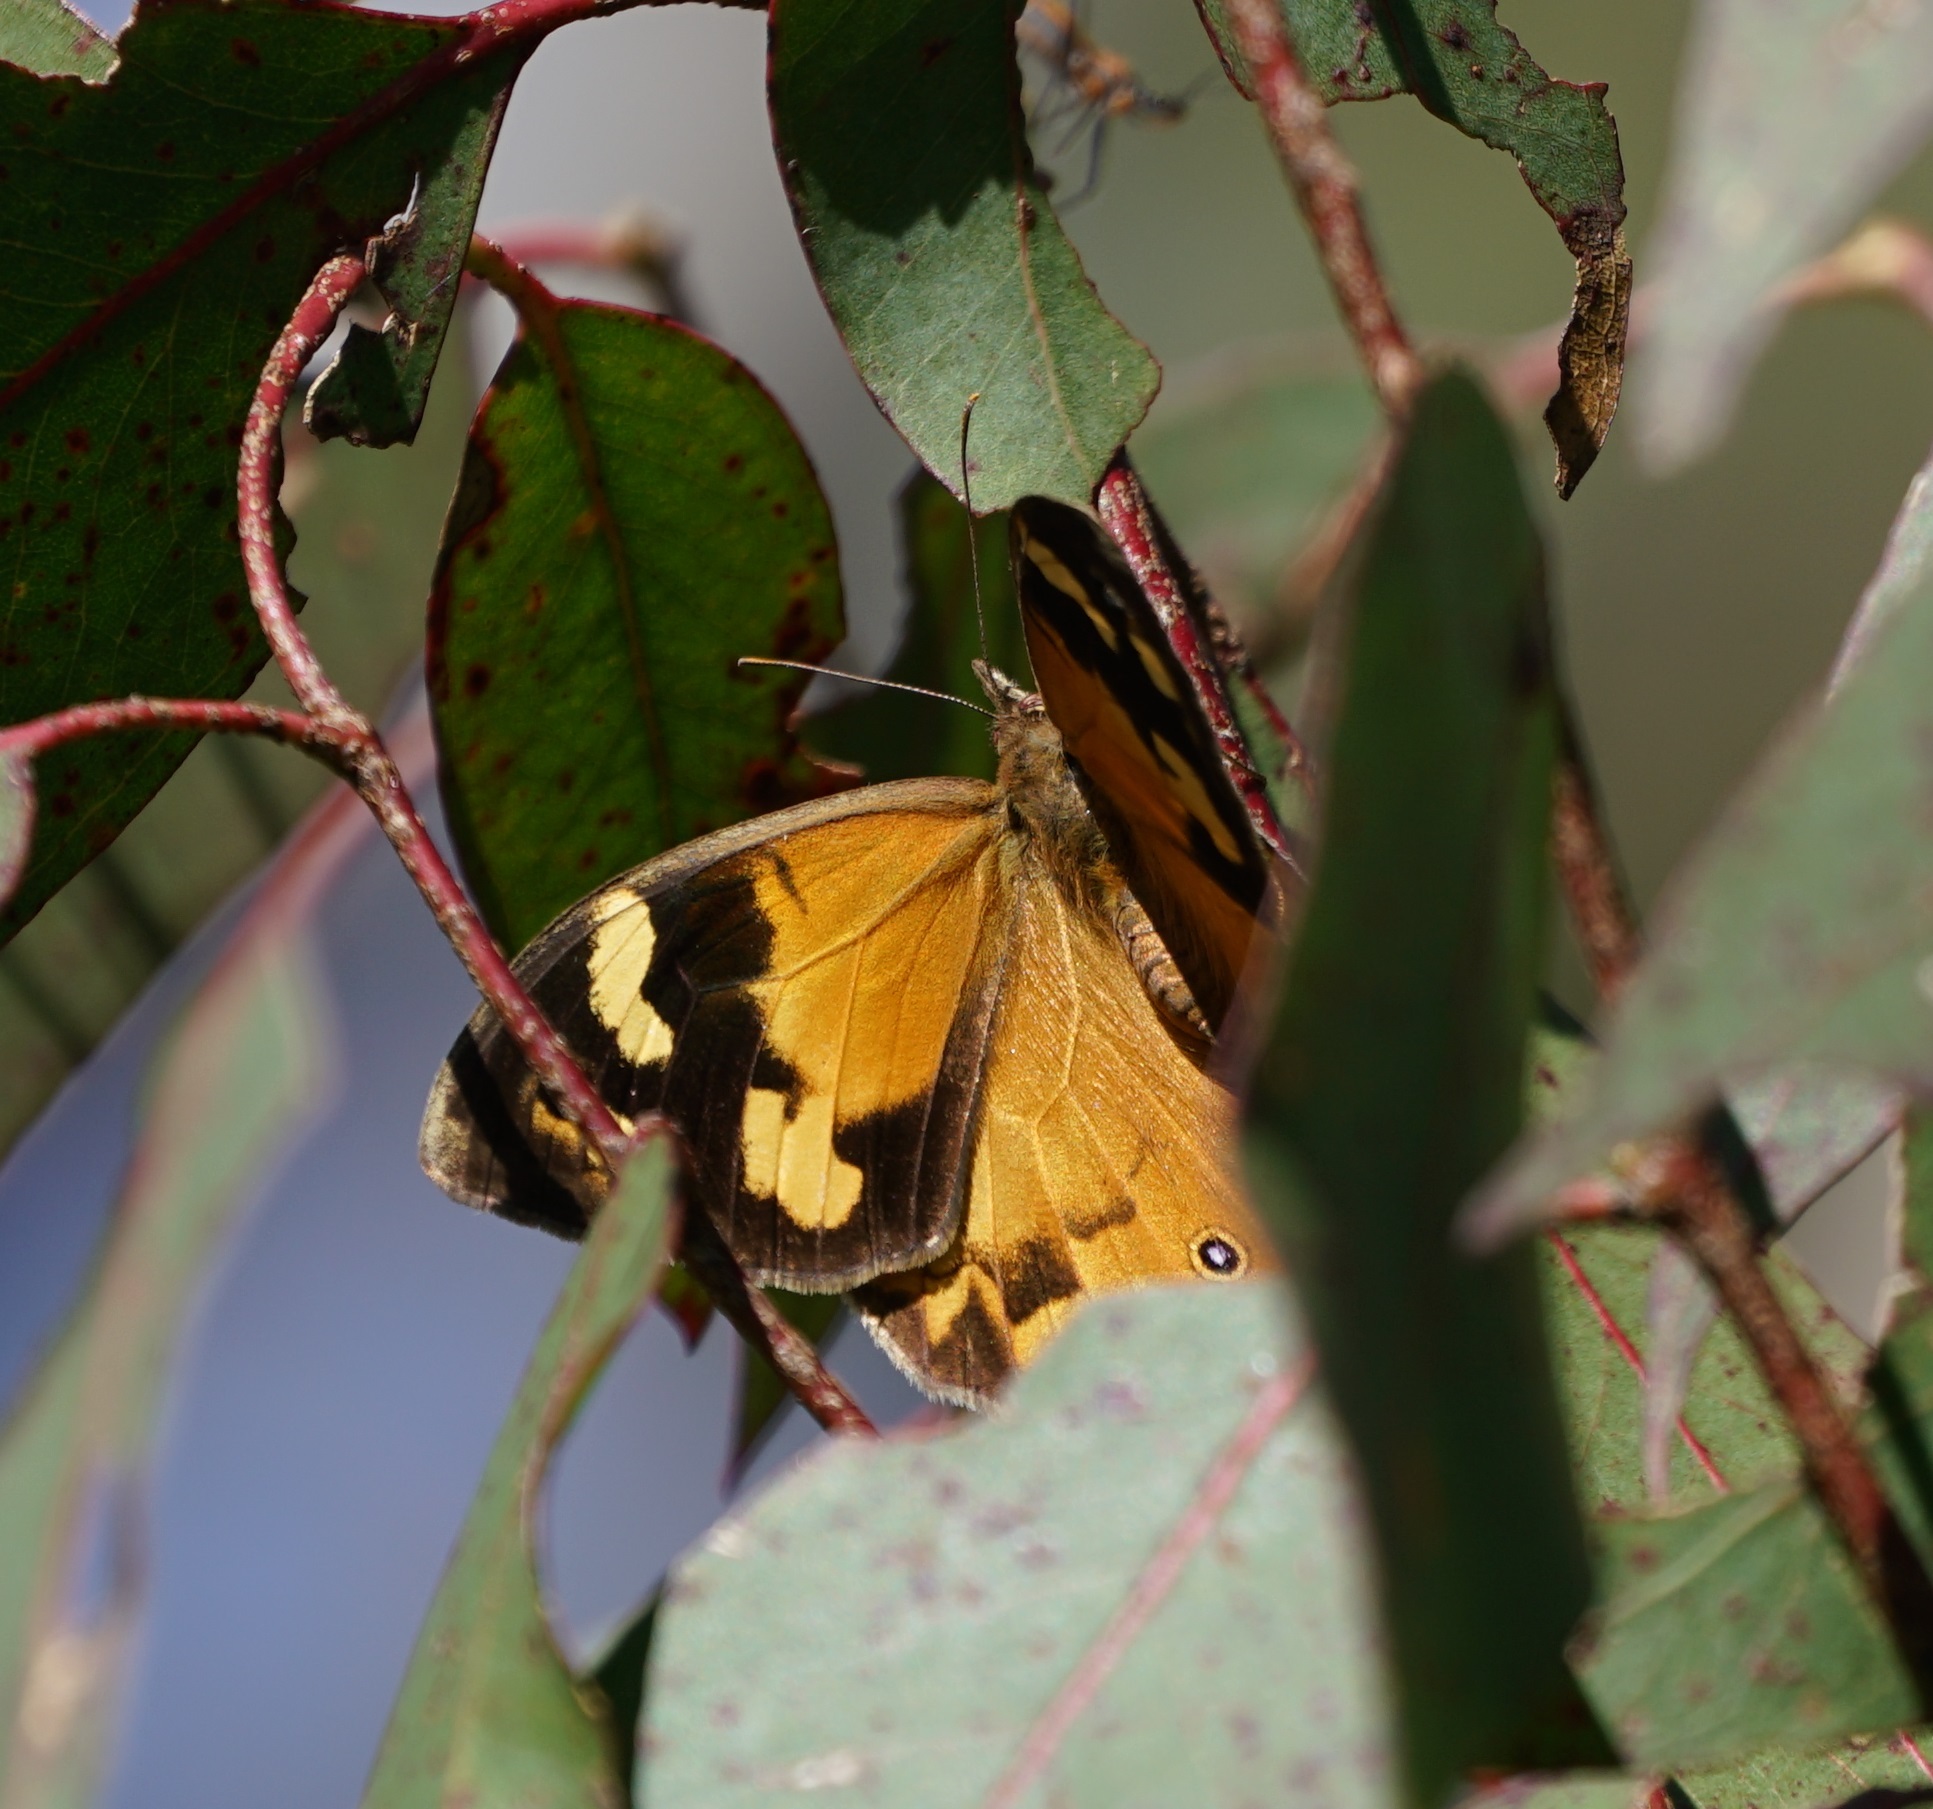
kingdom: Animalia
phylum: Arthropoda
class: Insecta
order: Lepidoptera
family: Nymphalidae
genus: Heteronympha
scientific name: Heteronympha merope
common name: Common brown
